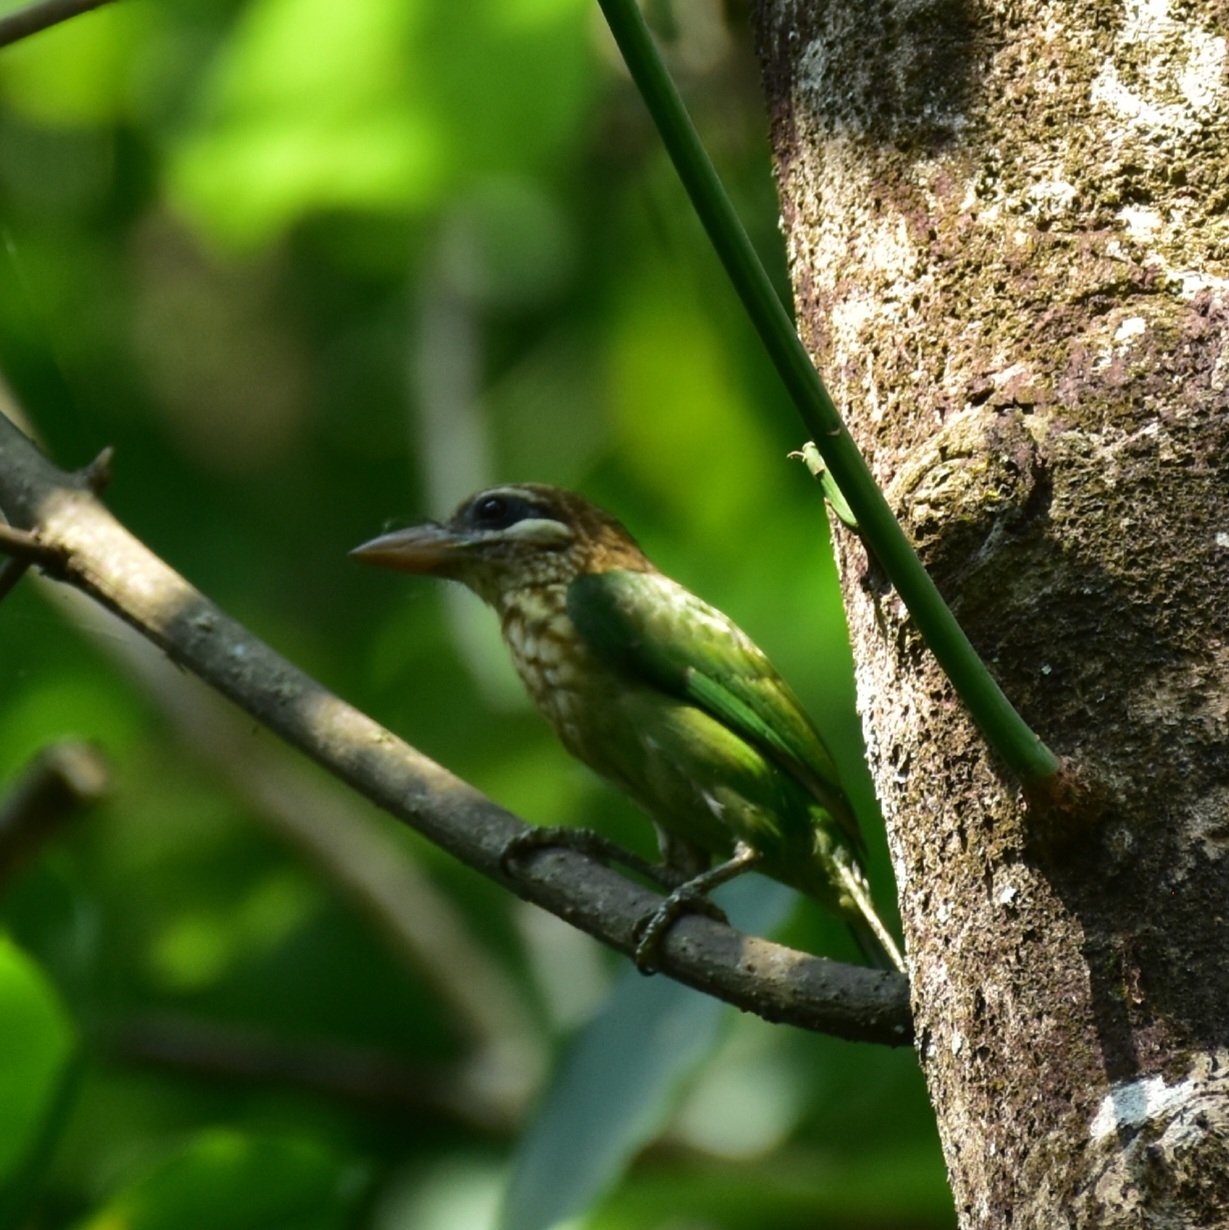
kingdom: Animalia
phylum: Chordata
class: Aves
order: Piciformes
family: Megalaimidae
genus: Psilopogon
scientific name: Psilopogon viridis
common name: White-cheeked barbet
